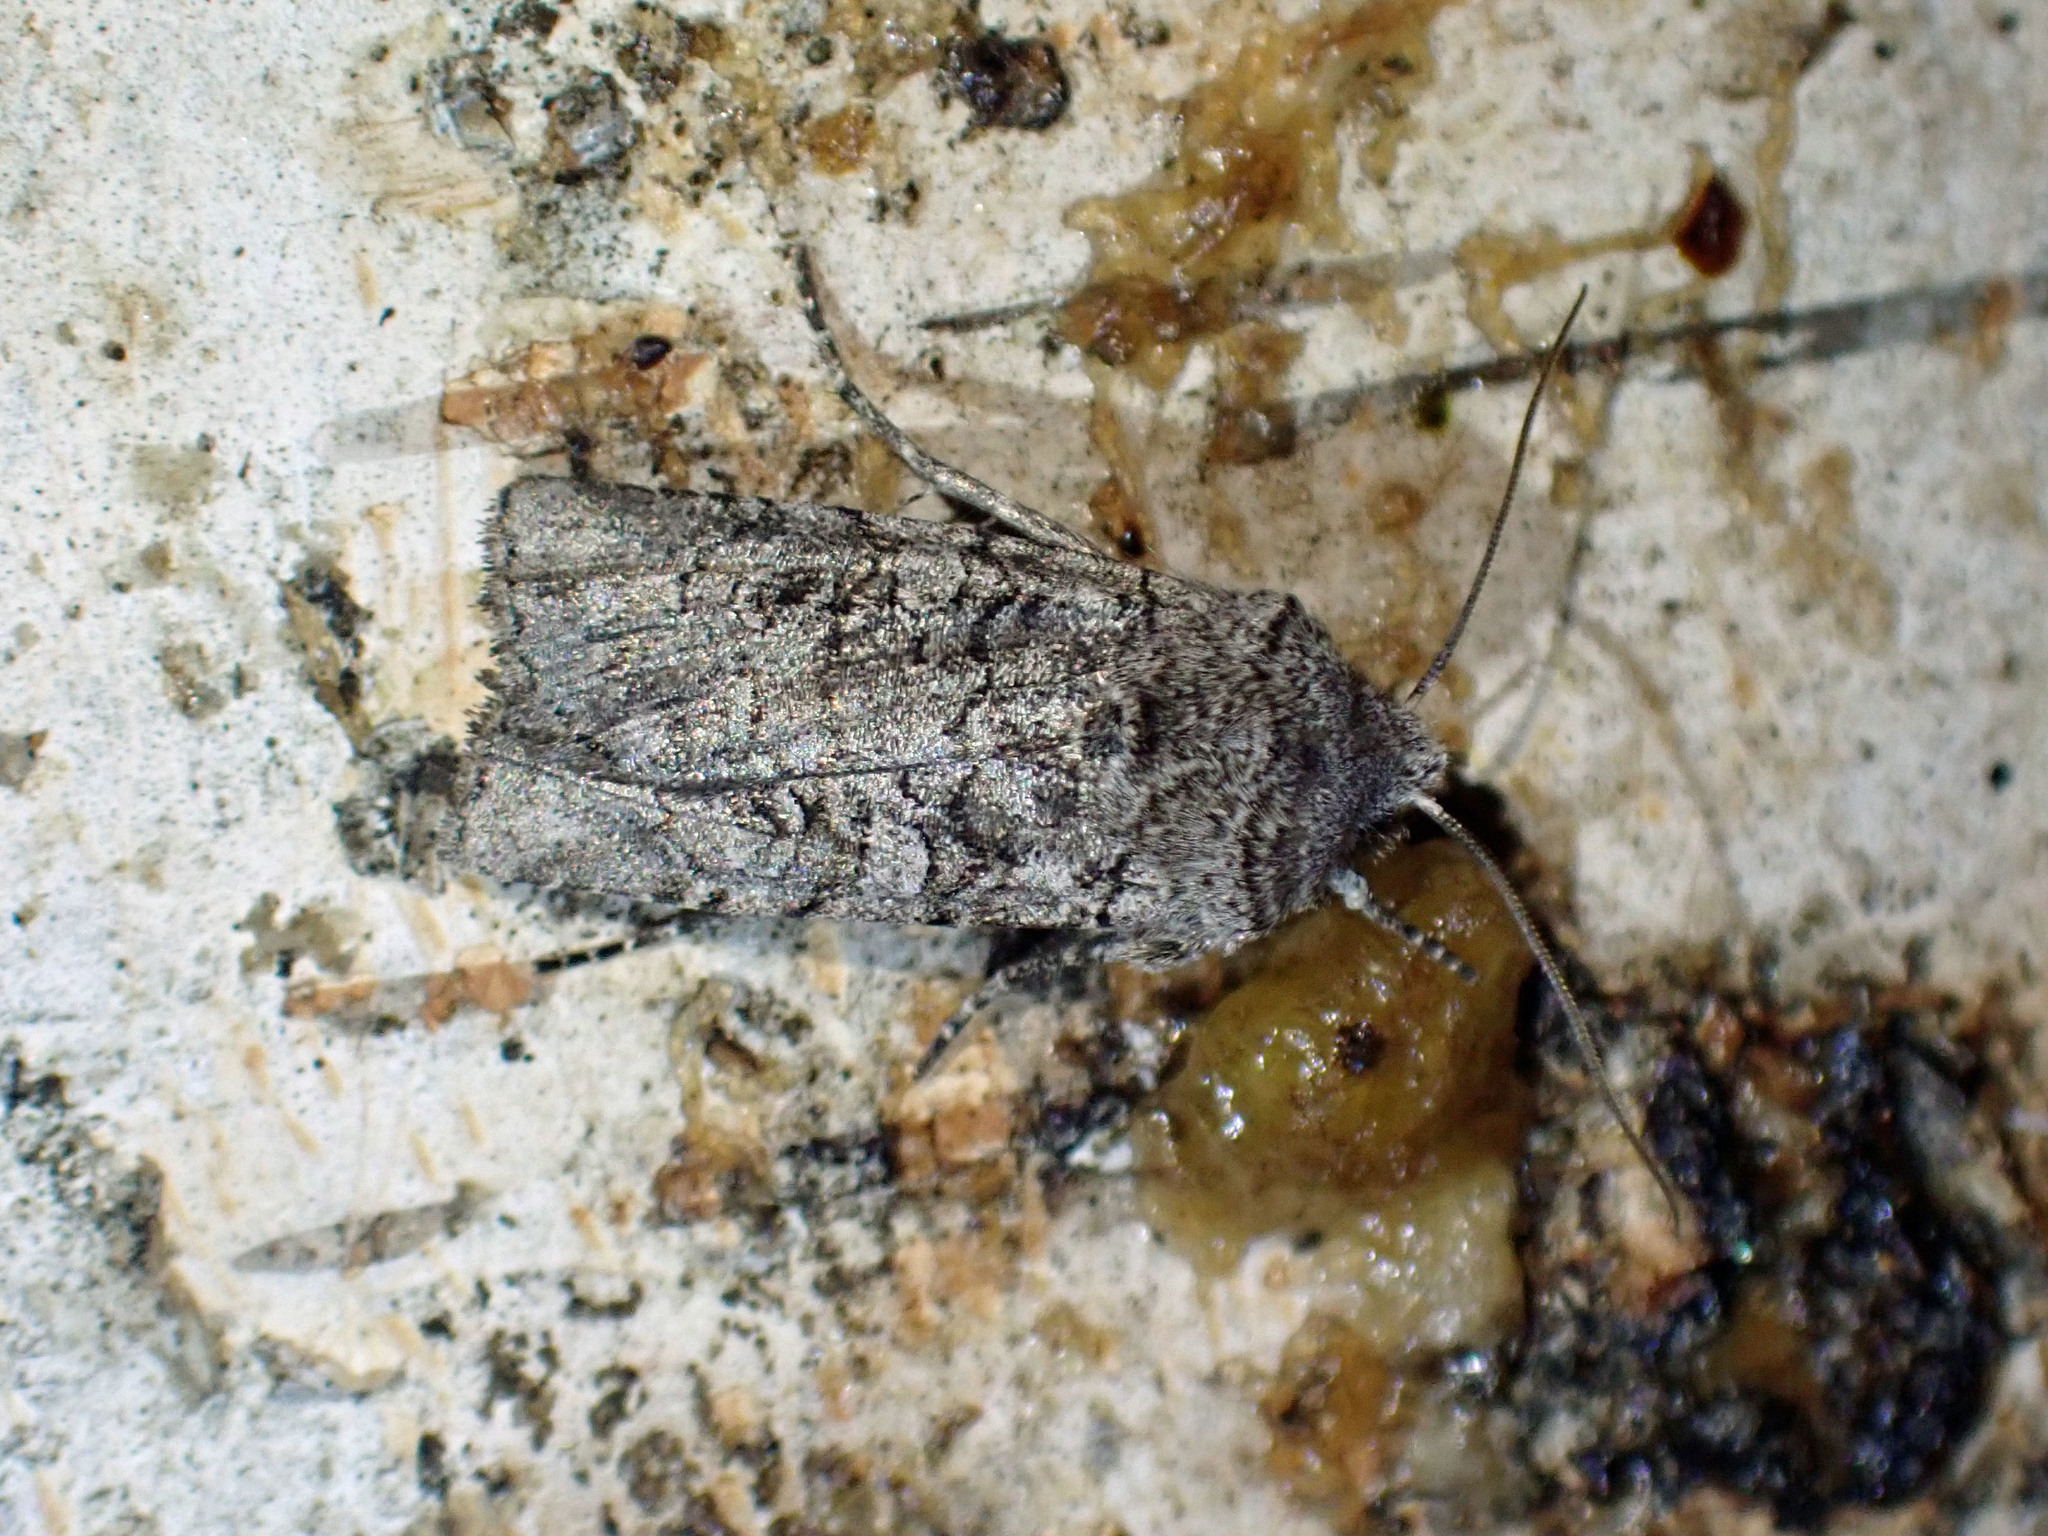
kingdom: Animalia
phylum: Arthropoda
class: Insecta
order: Lepidoptera
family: Noctuidae
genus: Litholomia
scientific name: Litholomia napaea
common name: False pinion moth
